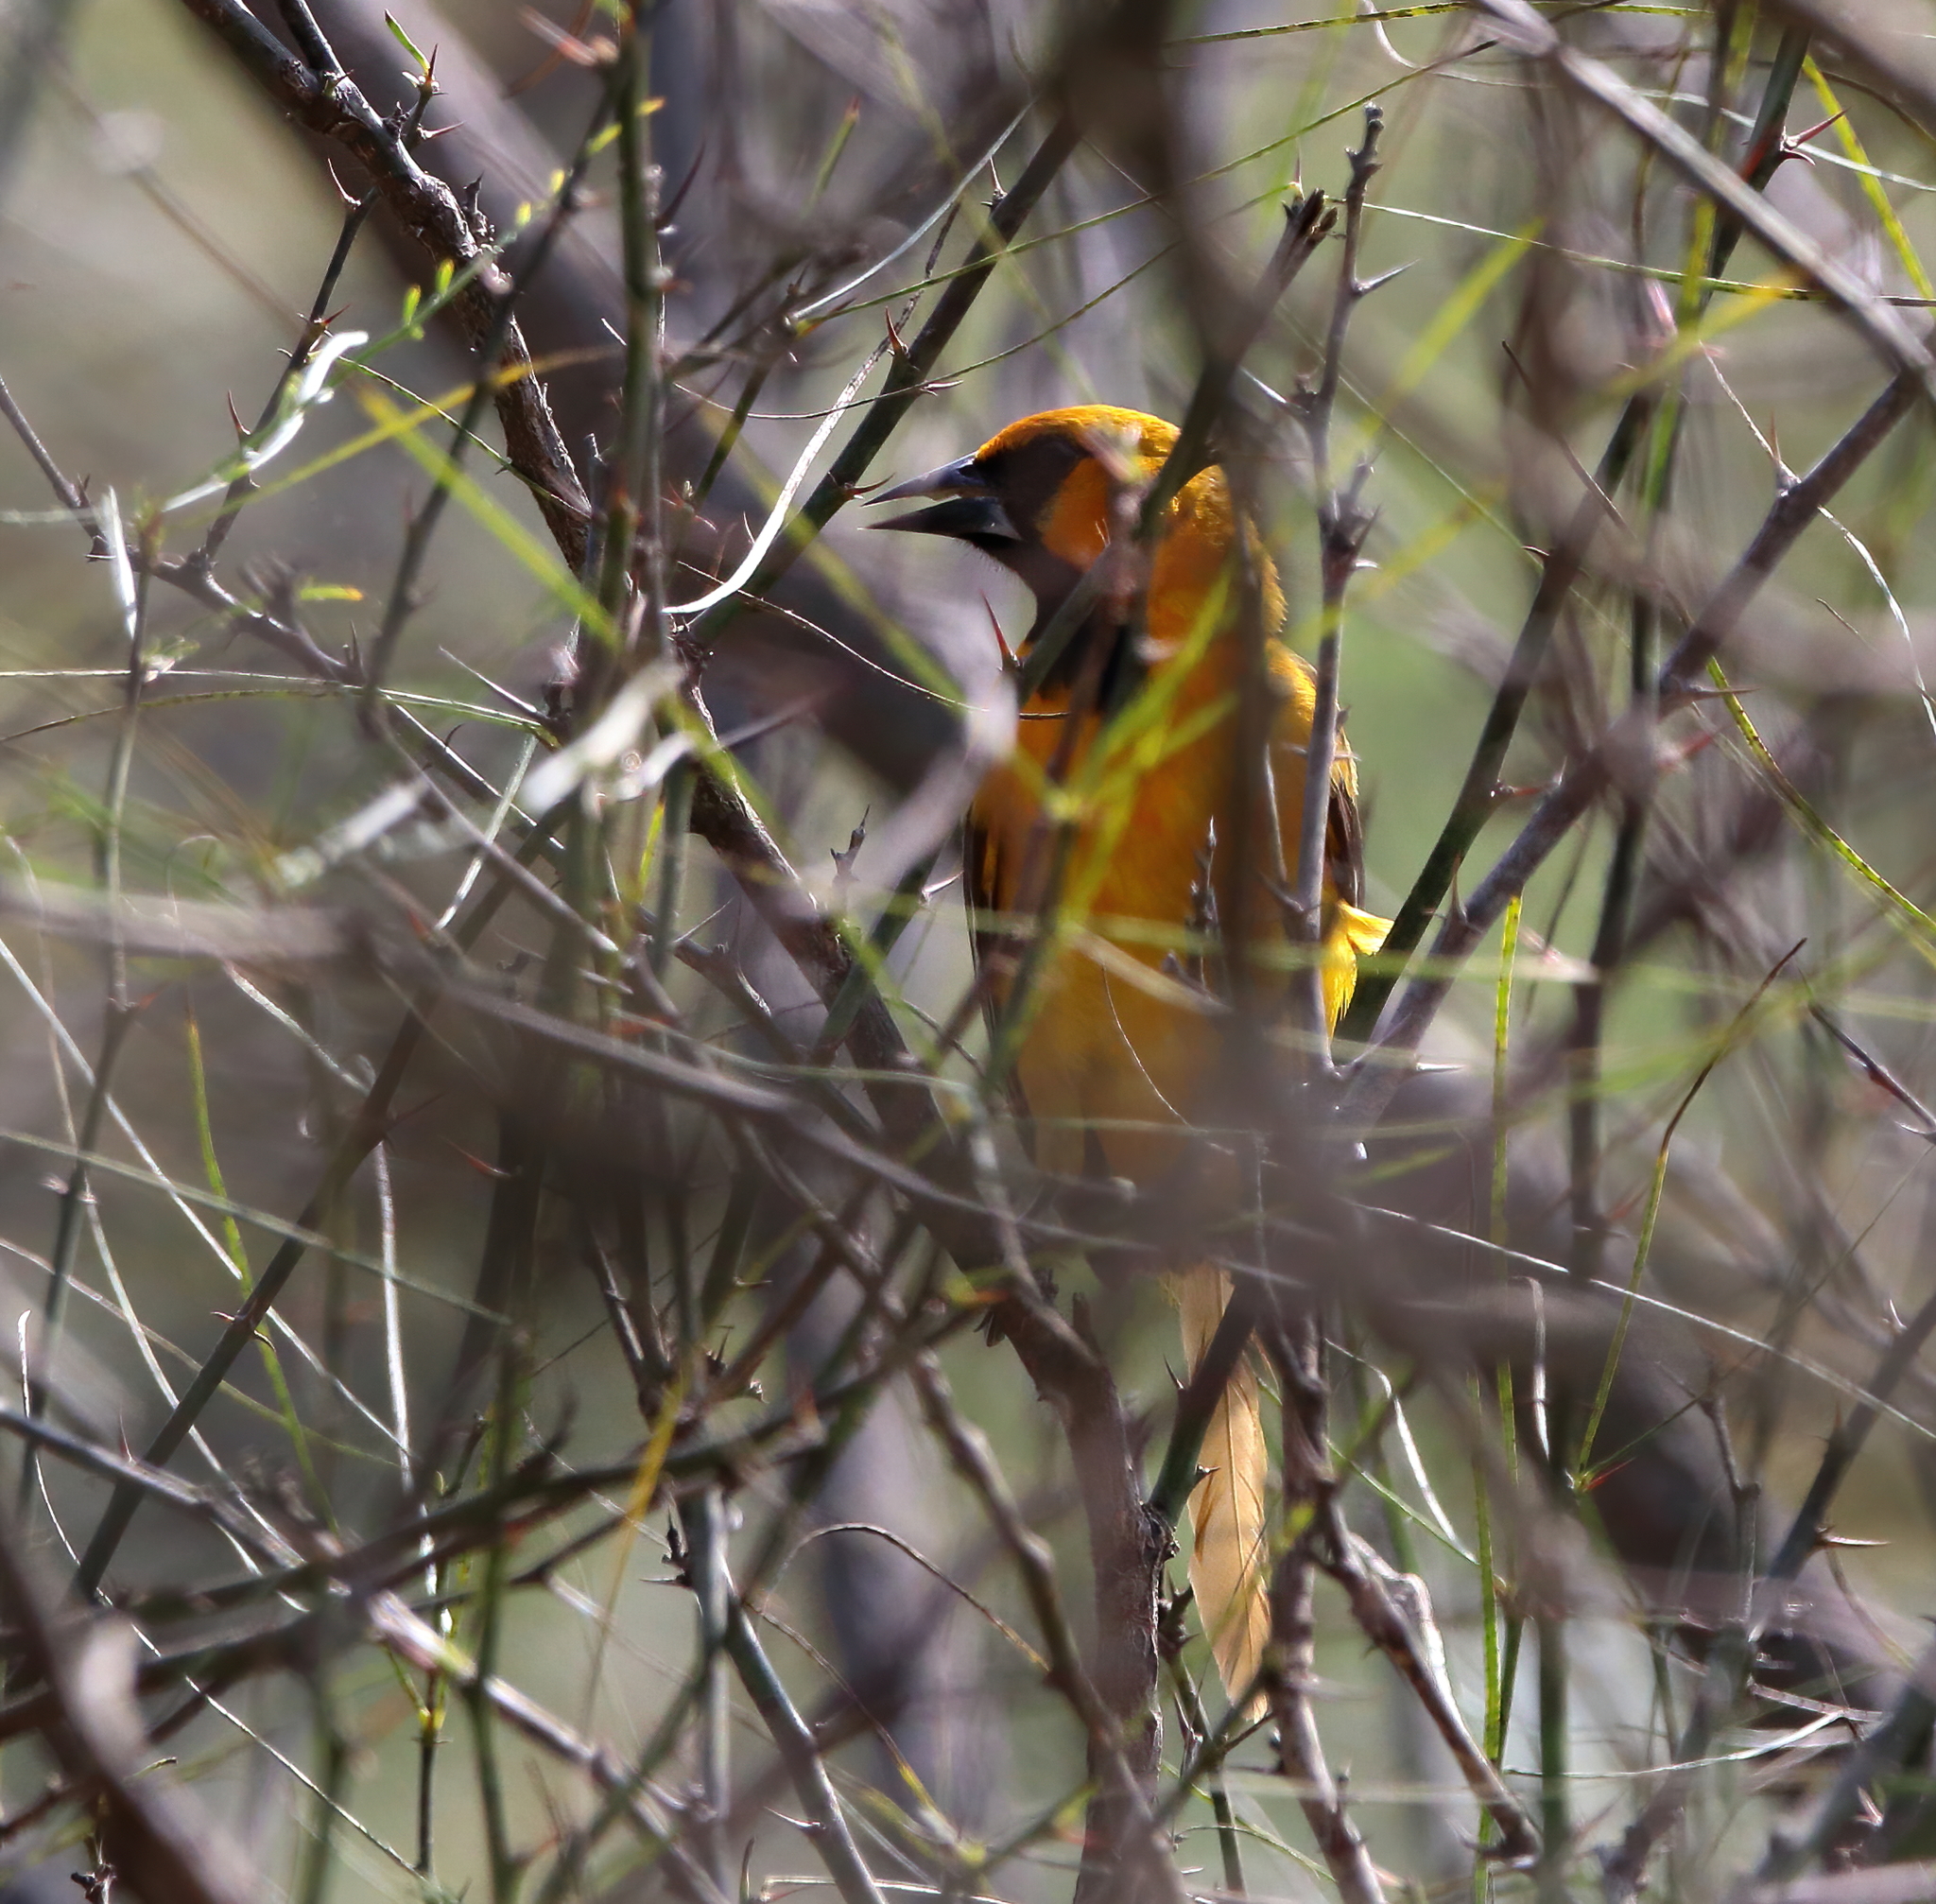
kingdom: Animalia
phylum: Chordata
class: Aves
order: Passeriformes
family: Icteridae
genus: Icterus
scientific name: Icterus gularis
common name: Altamira oriole
